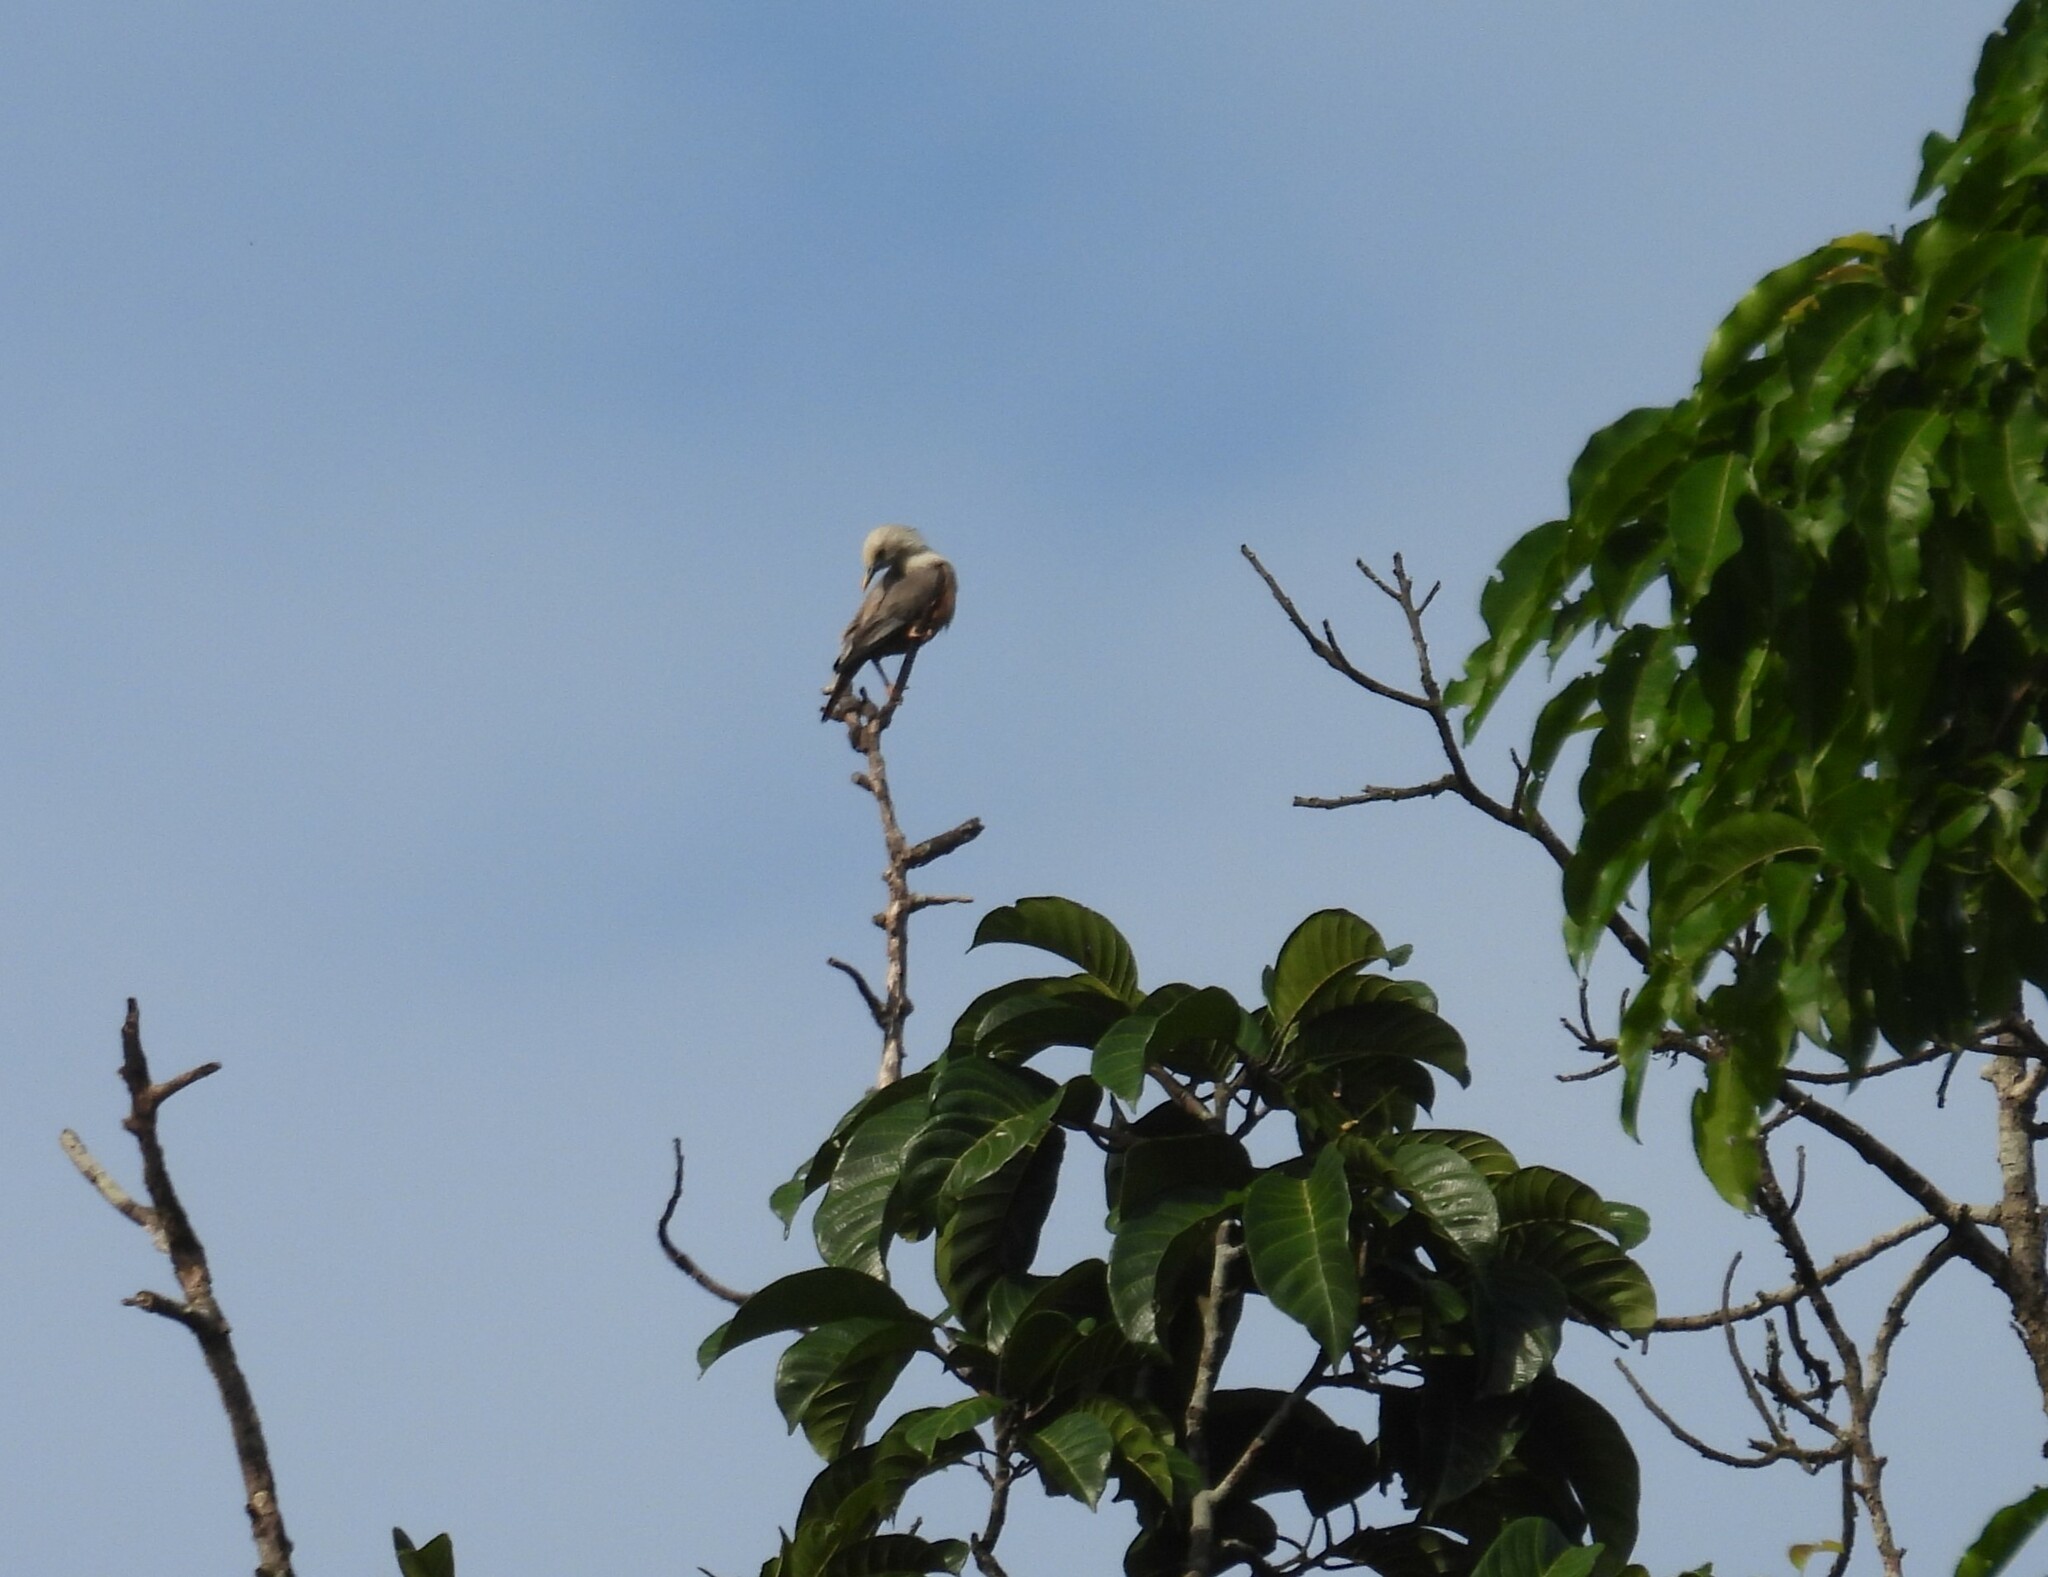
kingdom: Animalia
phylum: Chordata
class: Aves
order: Passeriformes
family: Sturnidae
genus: Sturnia
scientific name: Sturnia blythii
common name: Malabar starling
